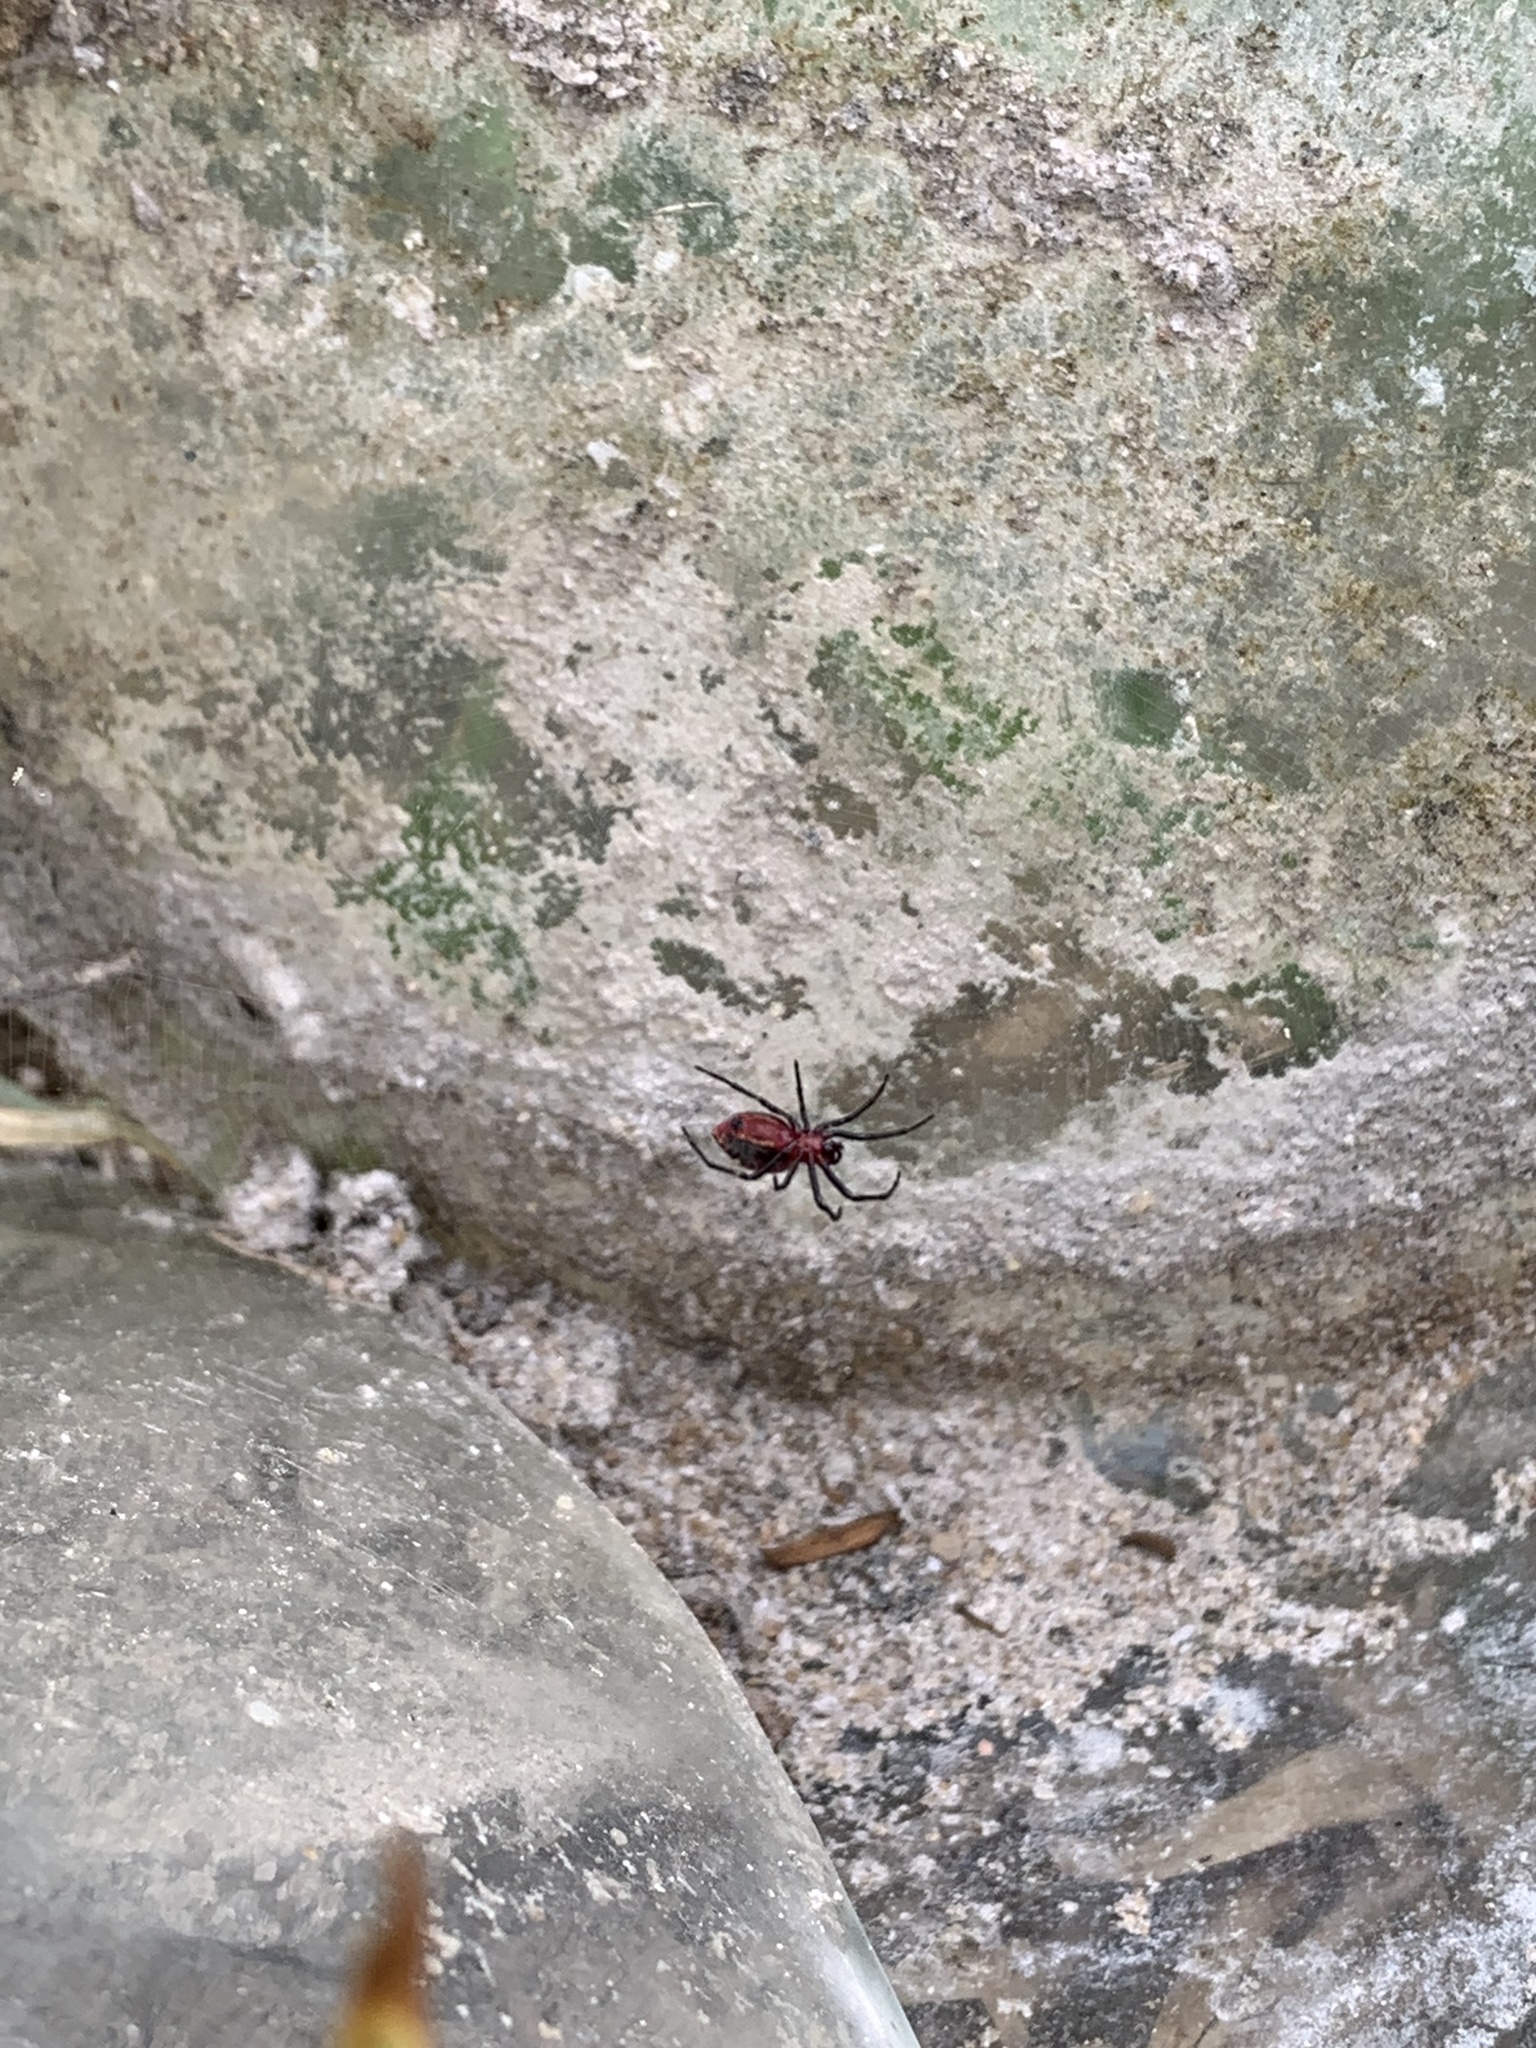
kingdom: Animalia
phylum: Arthropoda
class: Arachnida
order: Araneae
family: Araneidae
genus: Alpaida
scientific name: Alpaida carminea
